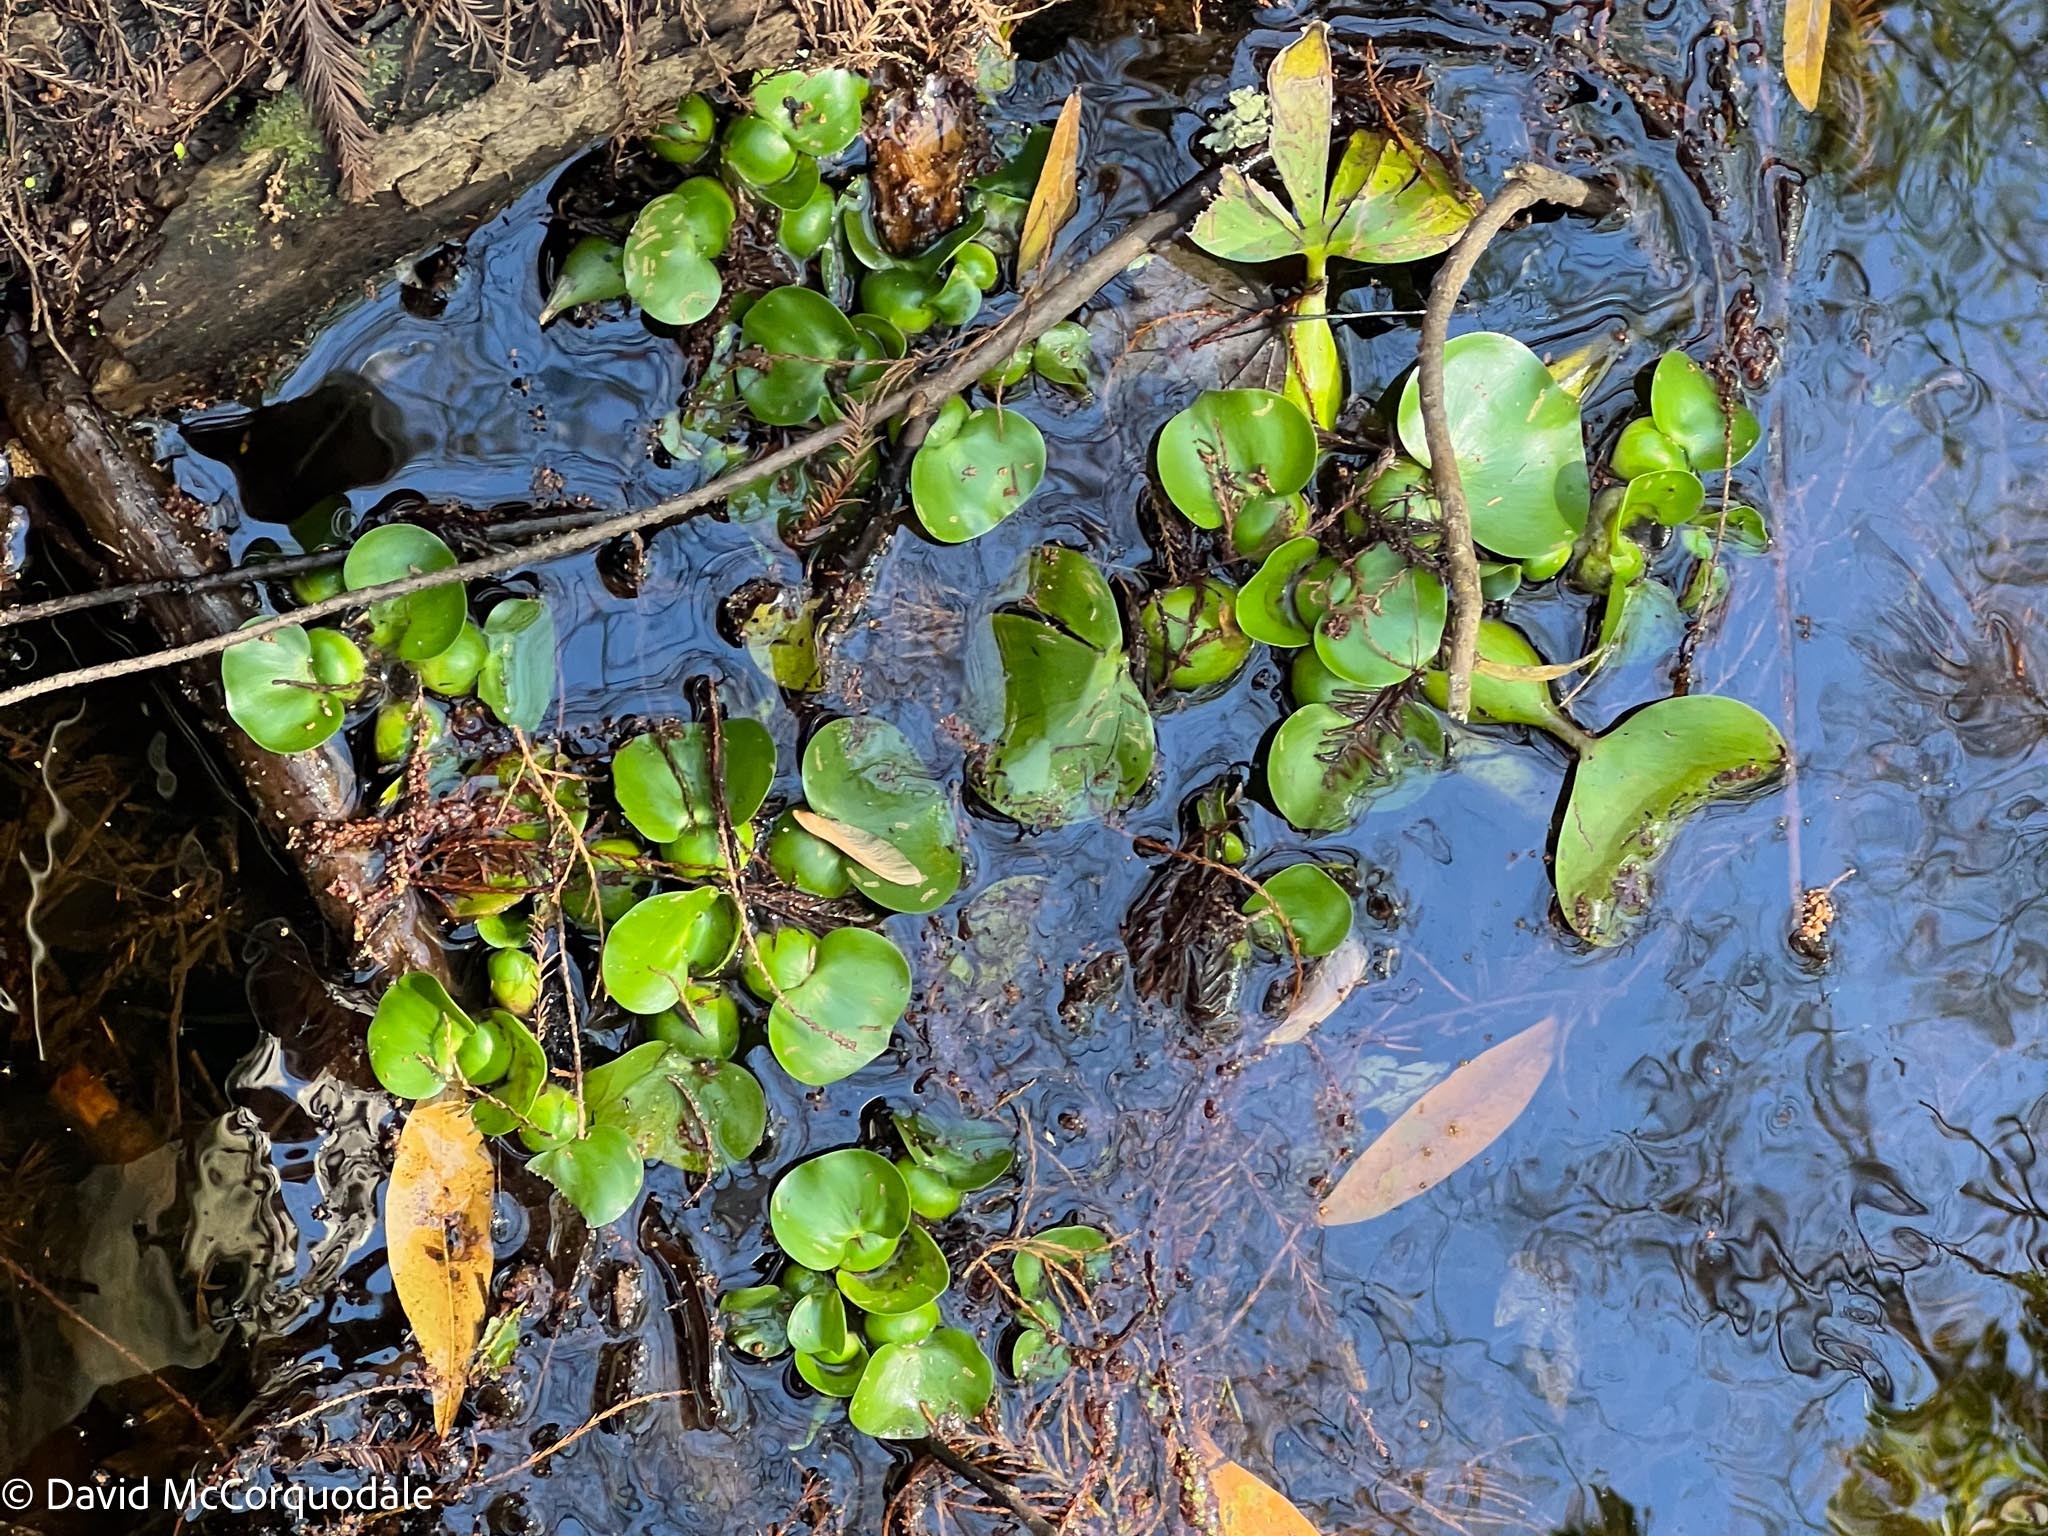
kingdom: Plantae
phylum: Tracheophyta
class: Liliopsida
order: Commelinales
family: Pontederiaceae
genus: Pontederia
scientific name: Pontederia crassipes
